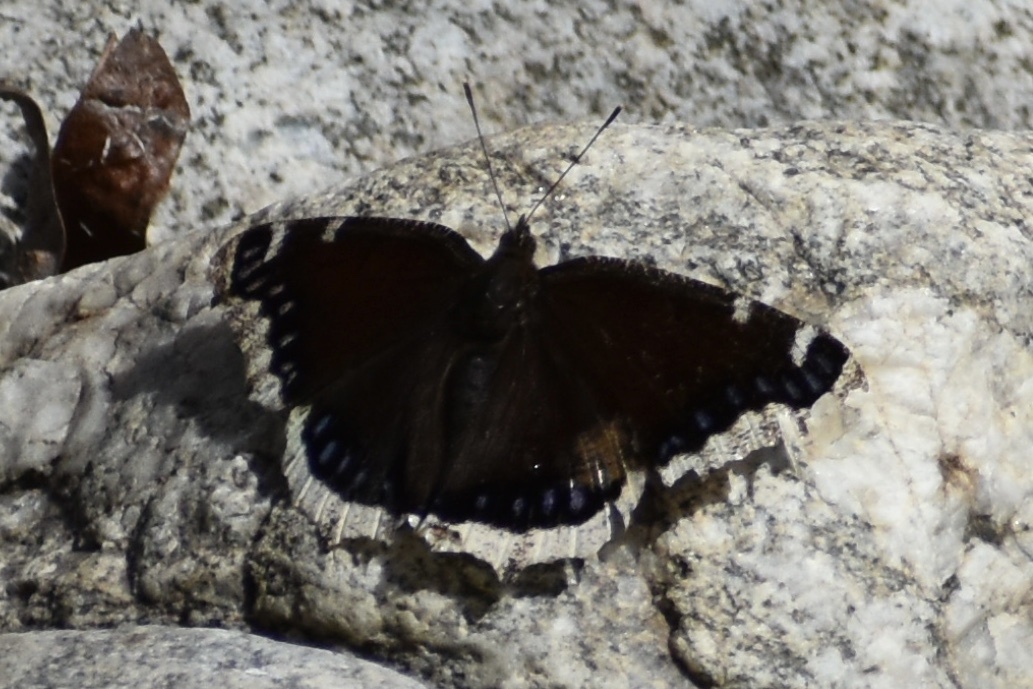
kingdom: Animalia
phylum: Arthropoda
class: Insecta
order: Lepidoptera
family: Nymphalidae
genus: Nymphalis
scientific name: Nymphalis antiopa
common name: Camberwell beauty
